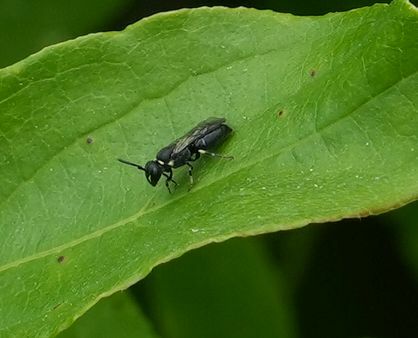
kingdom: Animalia
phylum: Arthropoda
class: Insecta
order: Hymenoptera
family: Colletidae
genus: Hylaeus
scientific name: Hylaeus modestus
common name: Yellow-faced bee
